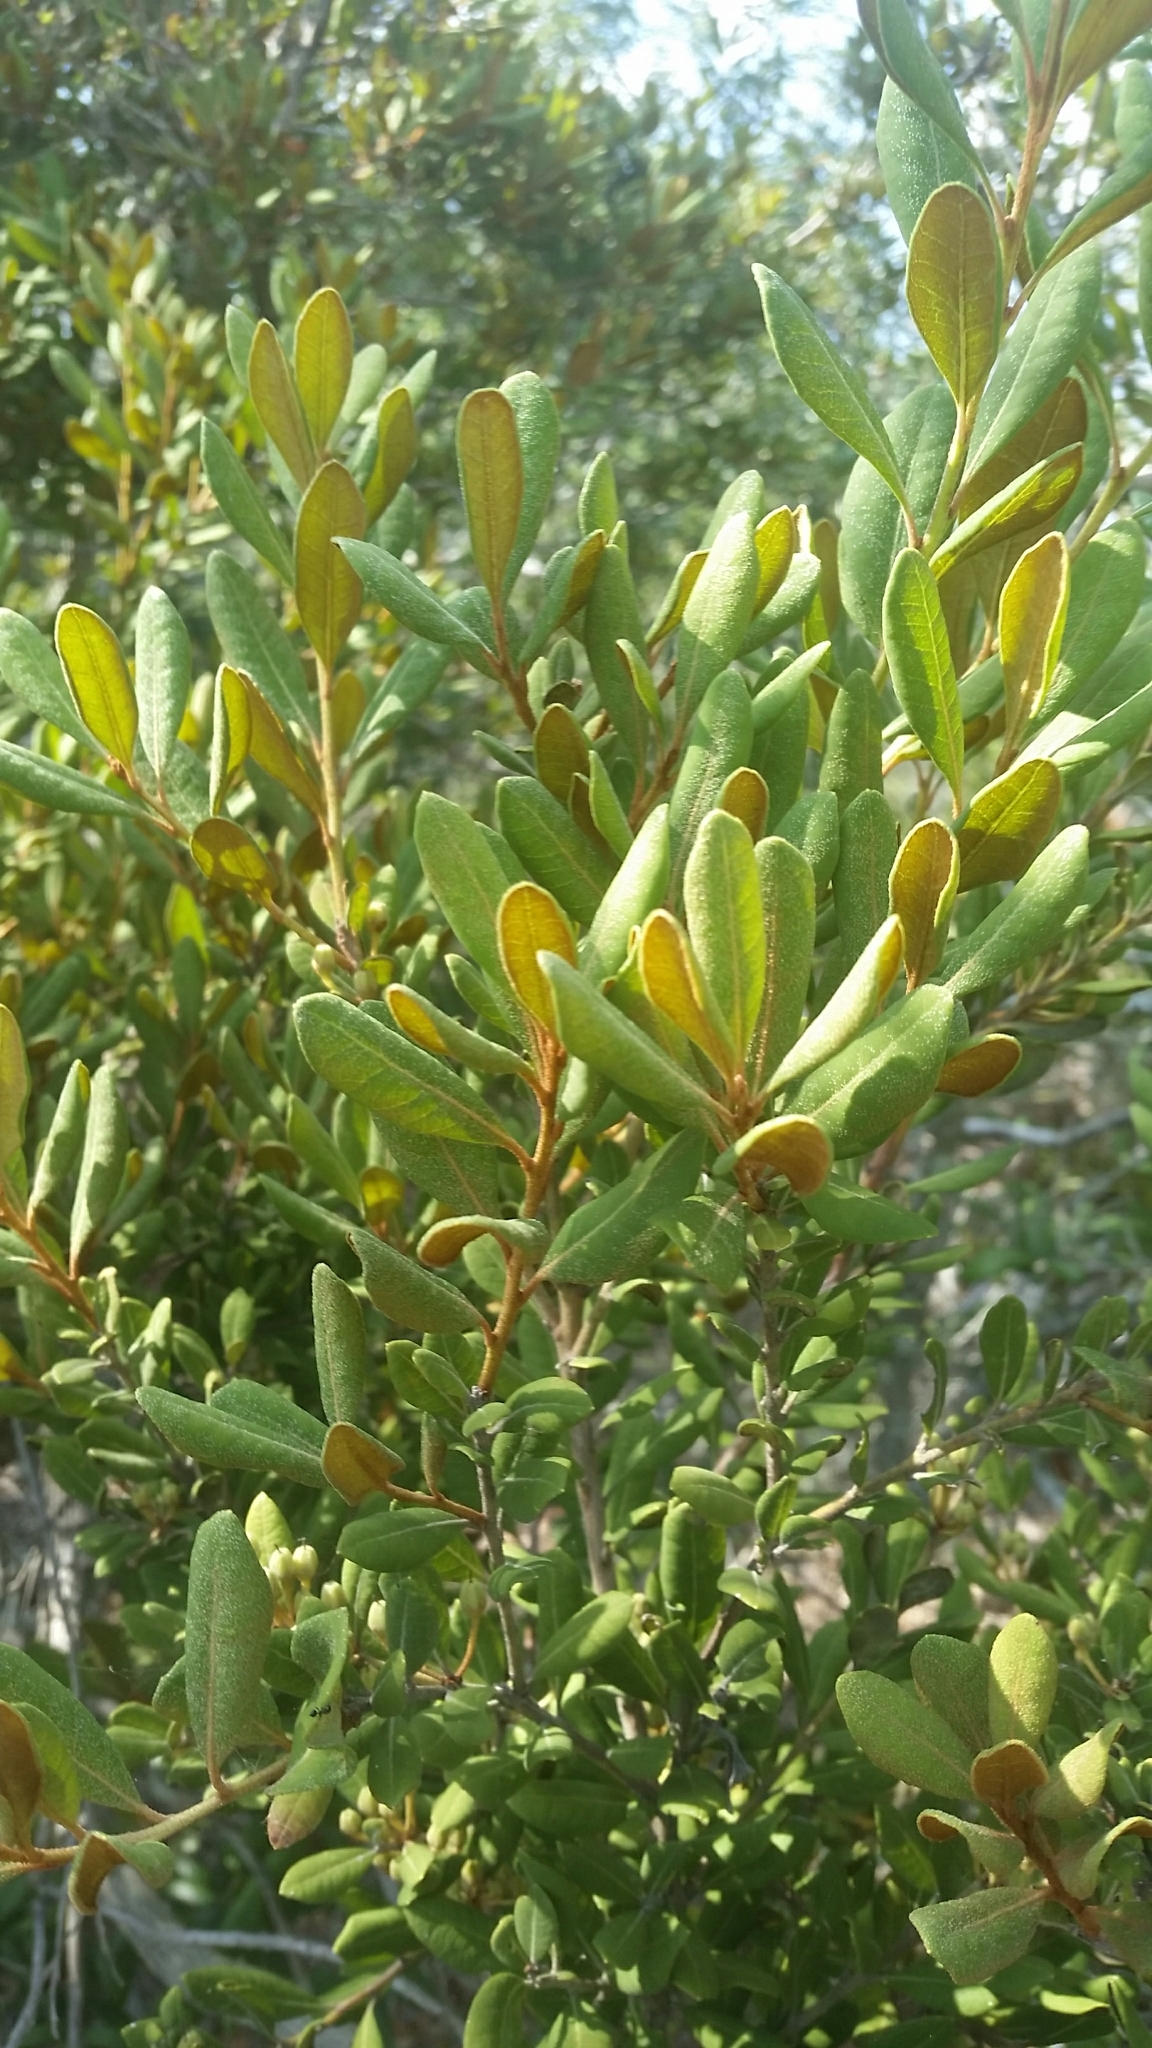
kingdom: Plantae
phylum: Tracheophyta
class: Magnoliopsida
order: Ericales
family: Ericaceae
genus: Lyonia
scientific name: Lyonia ferruginea
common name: Rusty lyonia
